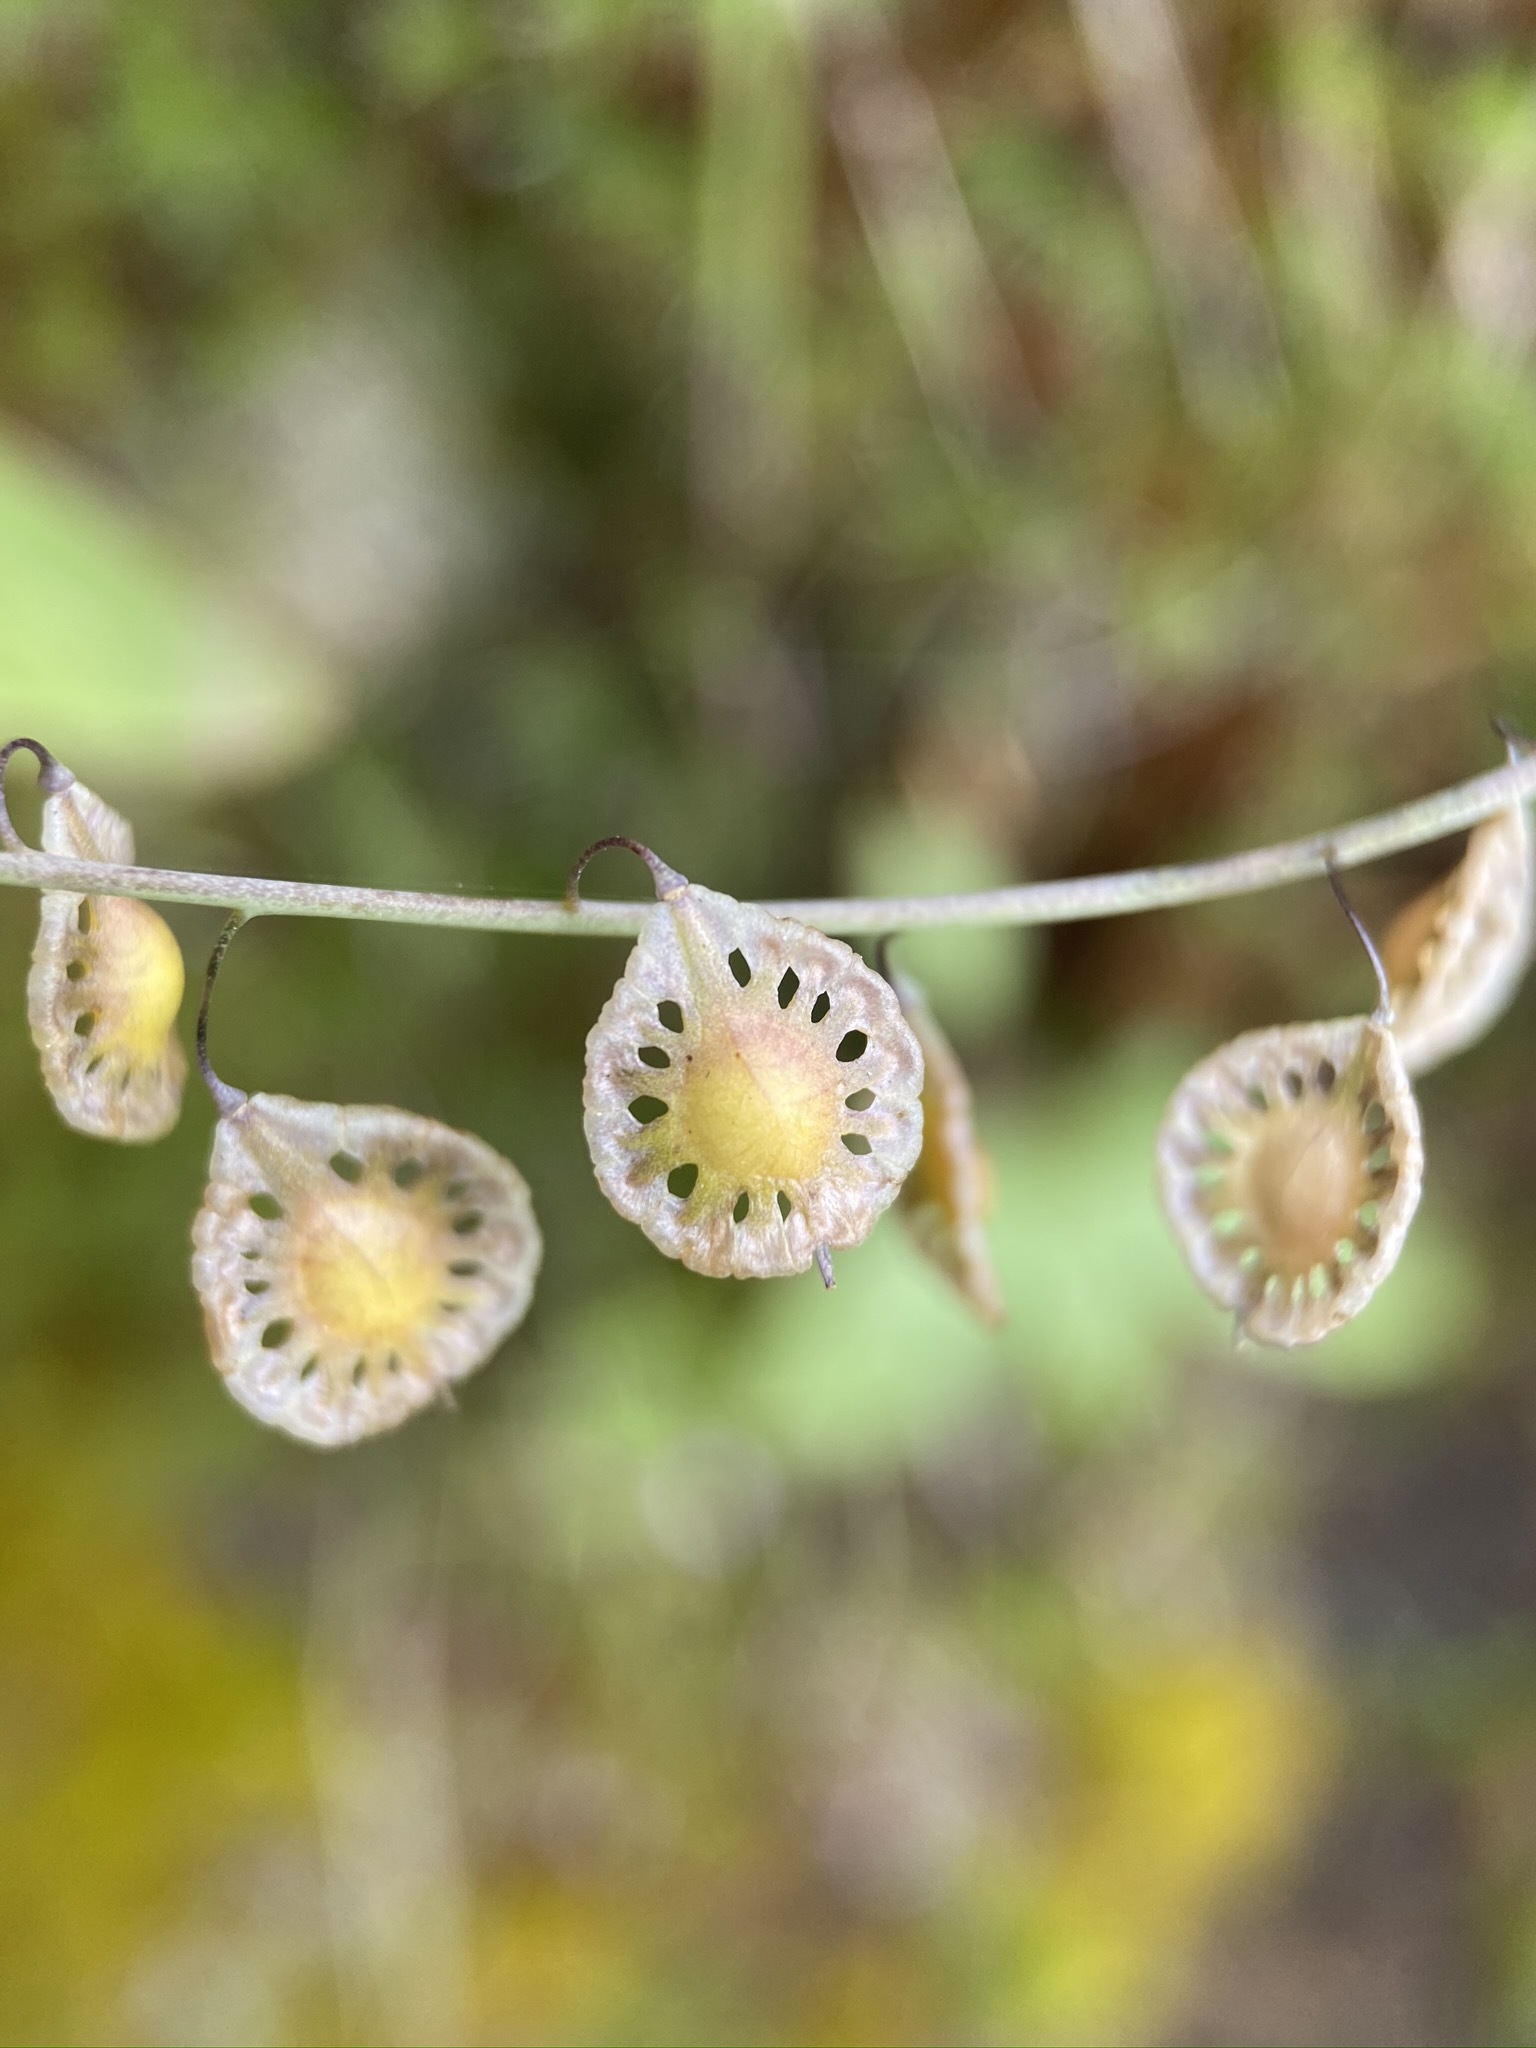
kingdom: Plantae
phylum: Tracheophyta
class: Magnoliopsida
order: Brassicales
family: Brassicaceae
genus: Thysanocarpus
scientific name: Thysanocarpus curvipes
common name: Sand fringepod
